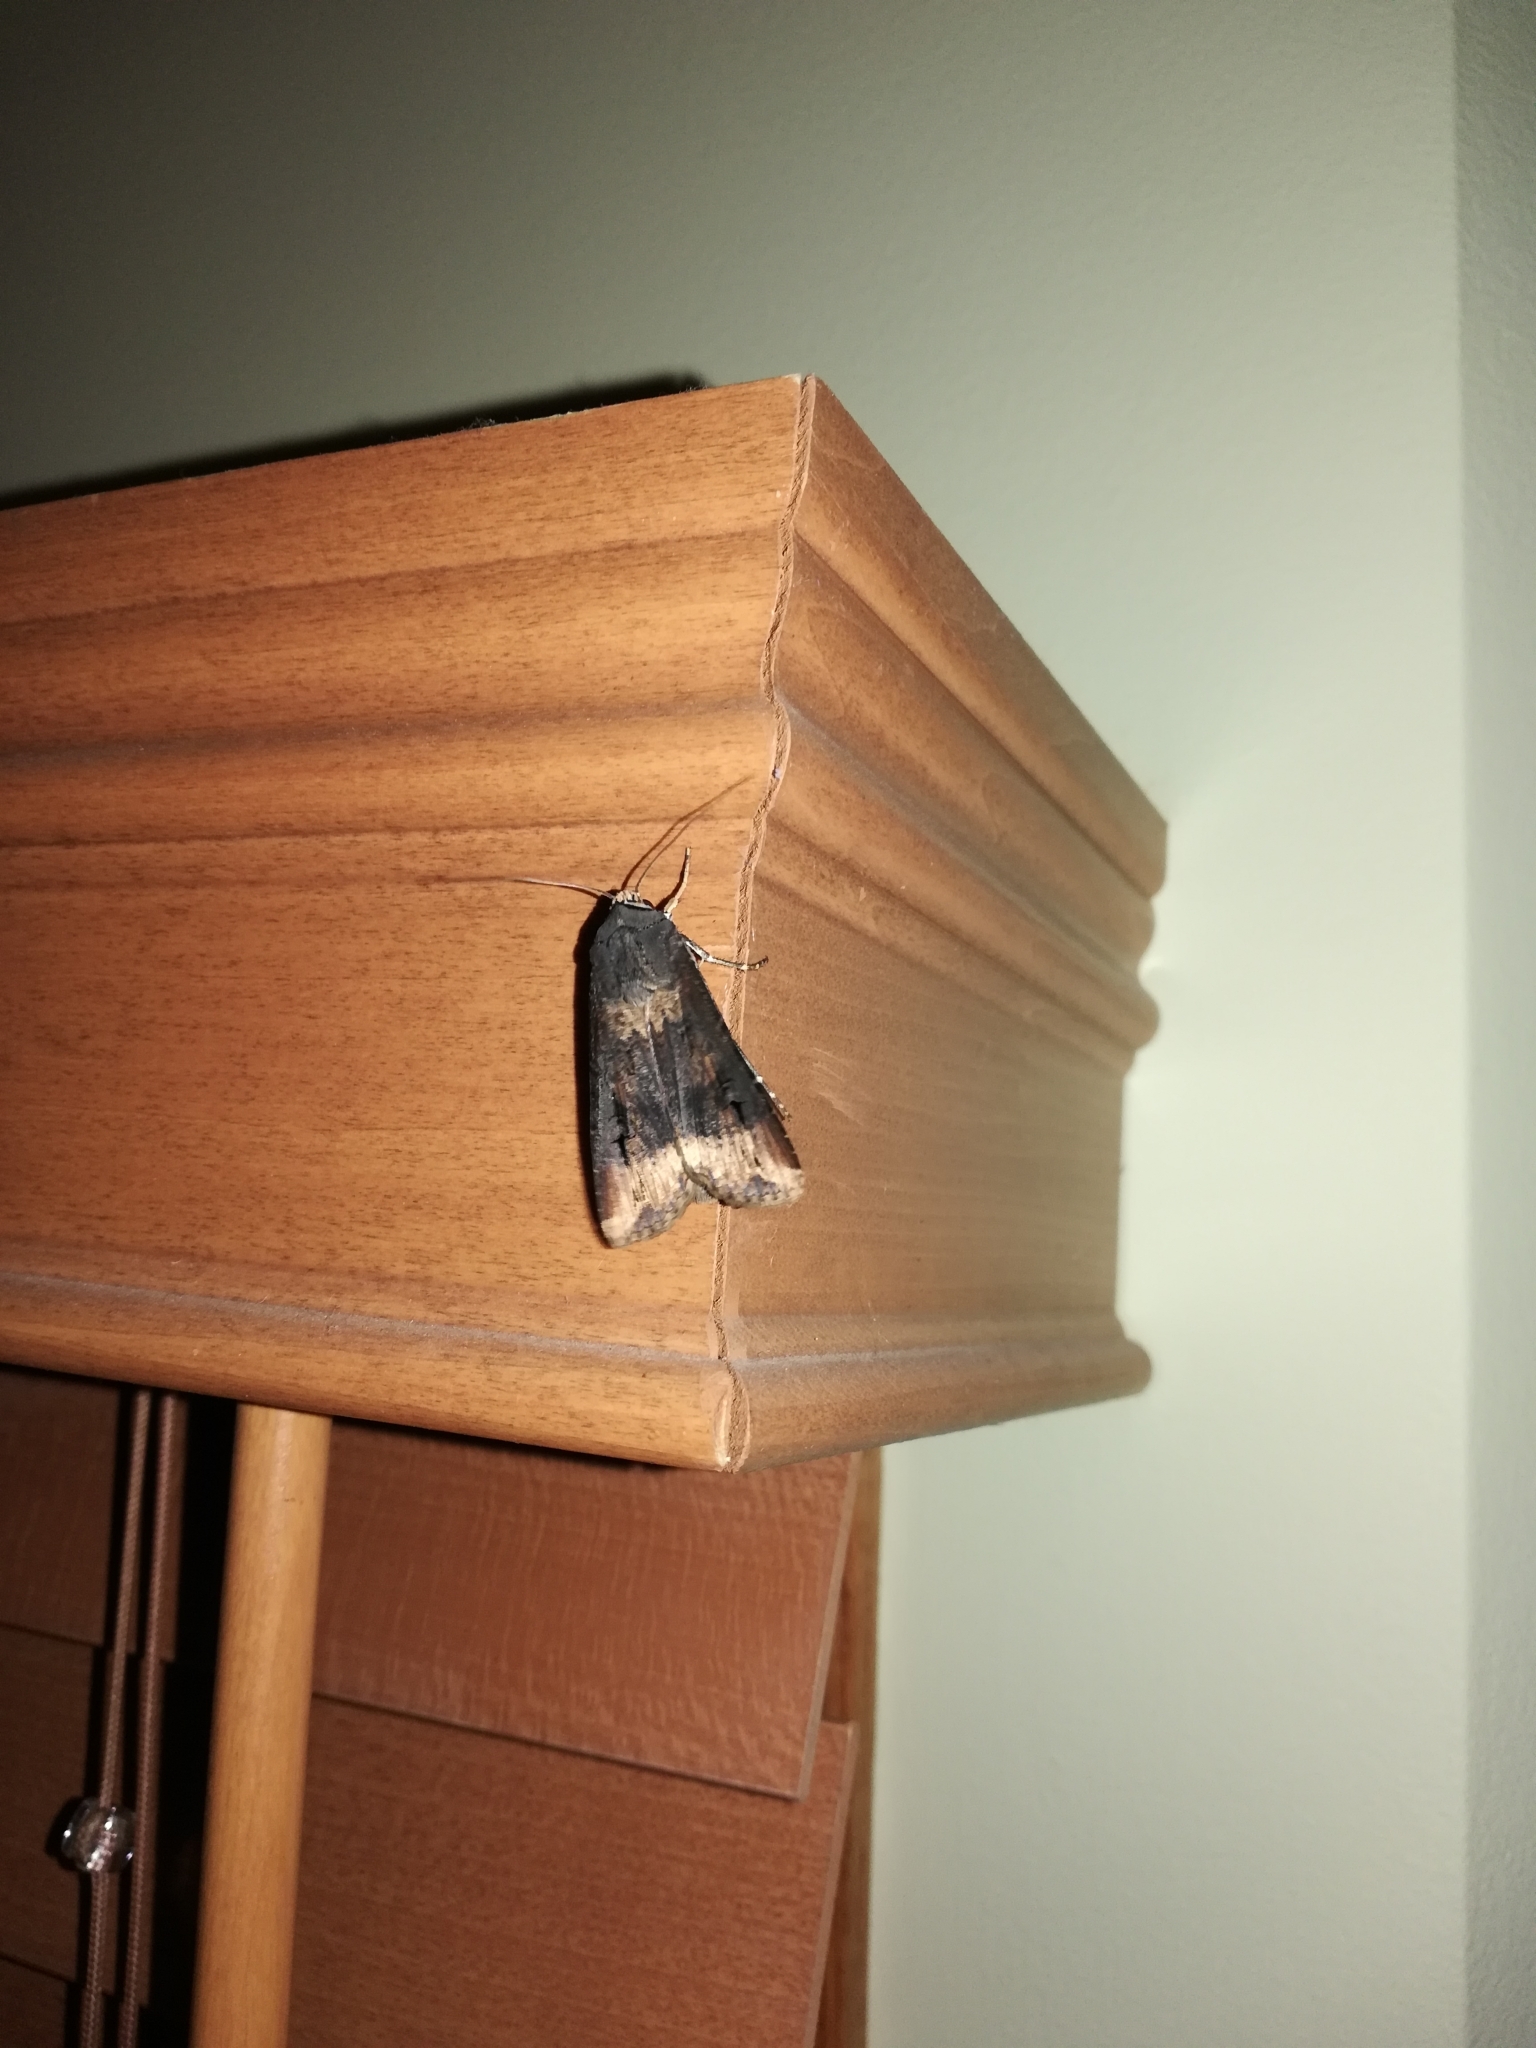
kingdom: Animalia
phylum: Arthropoda
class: Insecta
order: Lepidoptera
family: Noctuidae
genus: Agrotis
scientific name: Agrotis ipsilon
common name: Dark sword-grass
